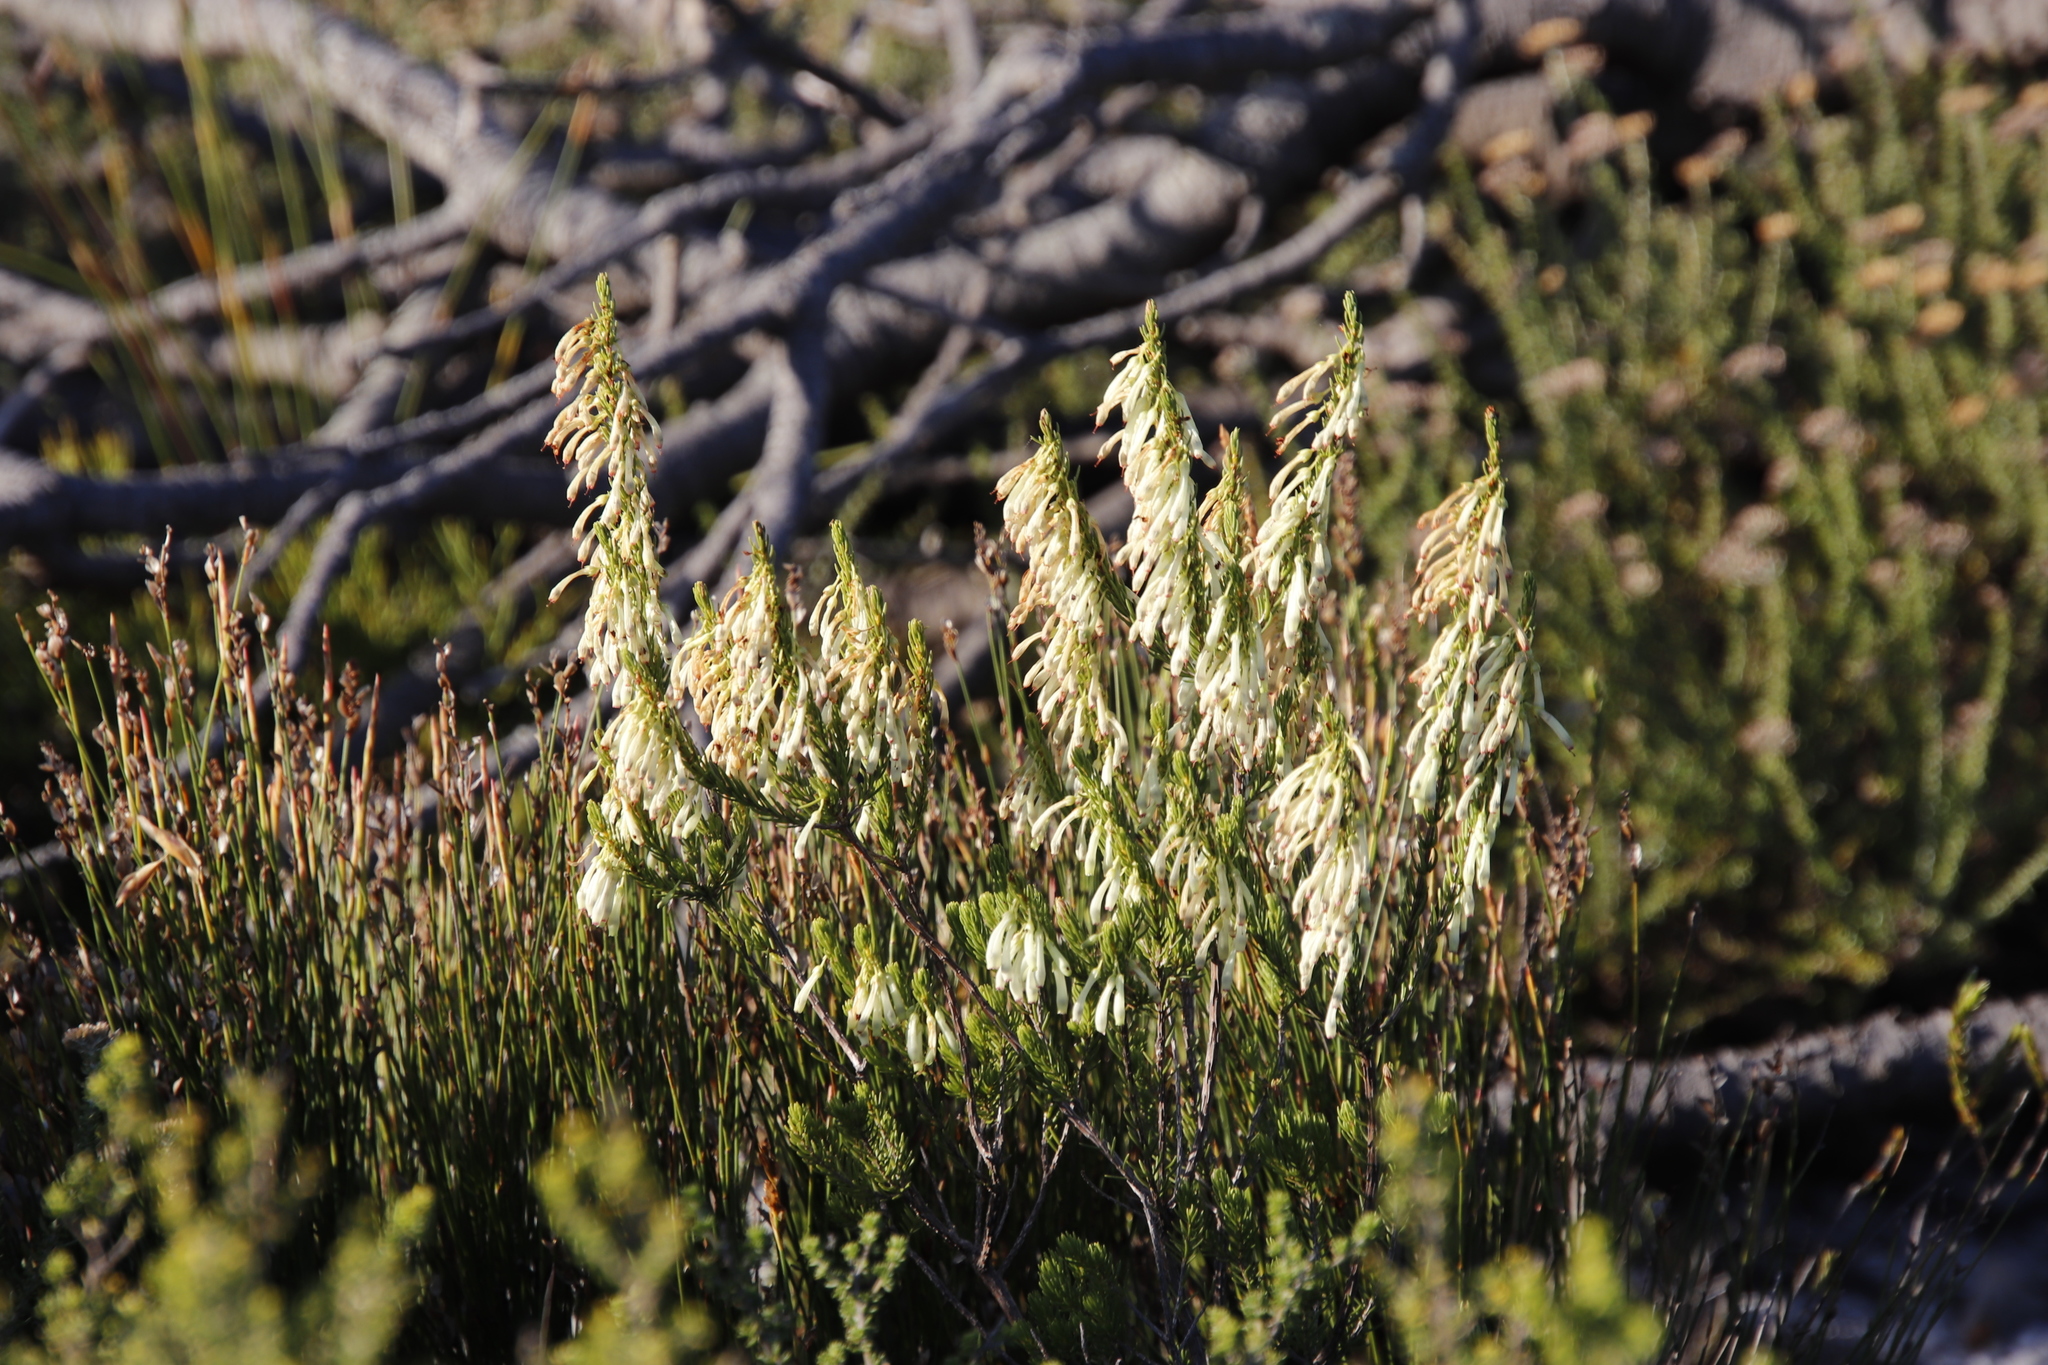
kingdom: Plantae
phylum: Tracheophyta
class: Magnoliopsida
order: Ericales
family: Ericaceae
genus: Erica
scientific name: Erica mammosa
